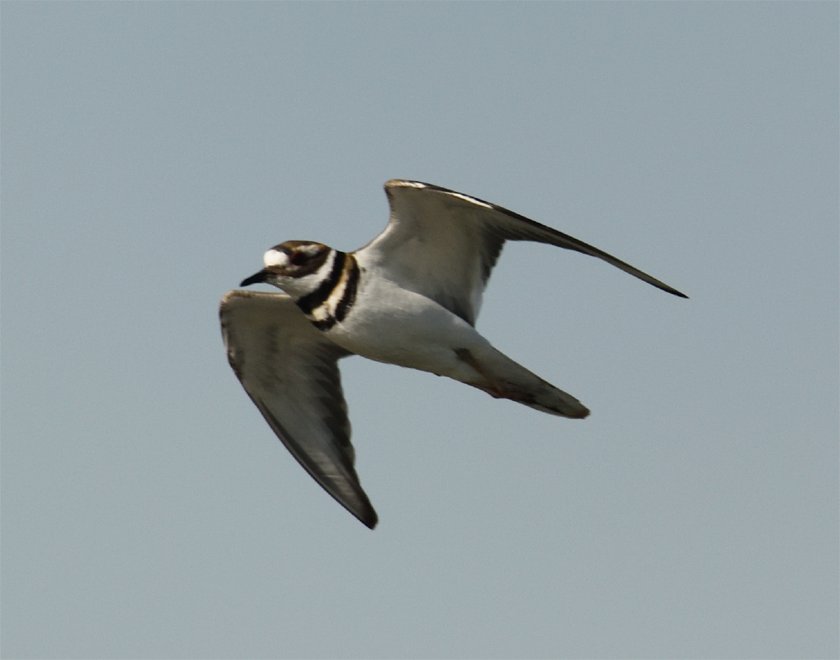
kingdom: Animalia
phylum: Chordata
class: Aves
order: Charadriiformes
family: Charadriidae
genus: Charadrius
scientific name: Charadrius vociferus
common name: Killdeer
